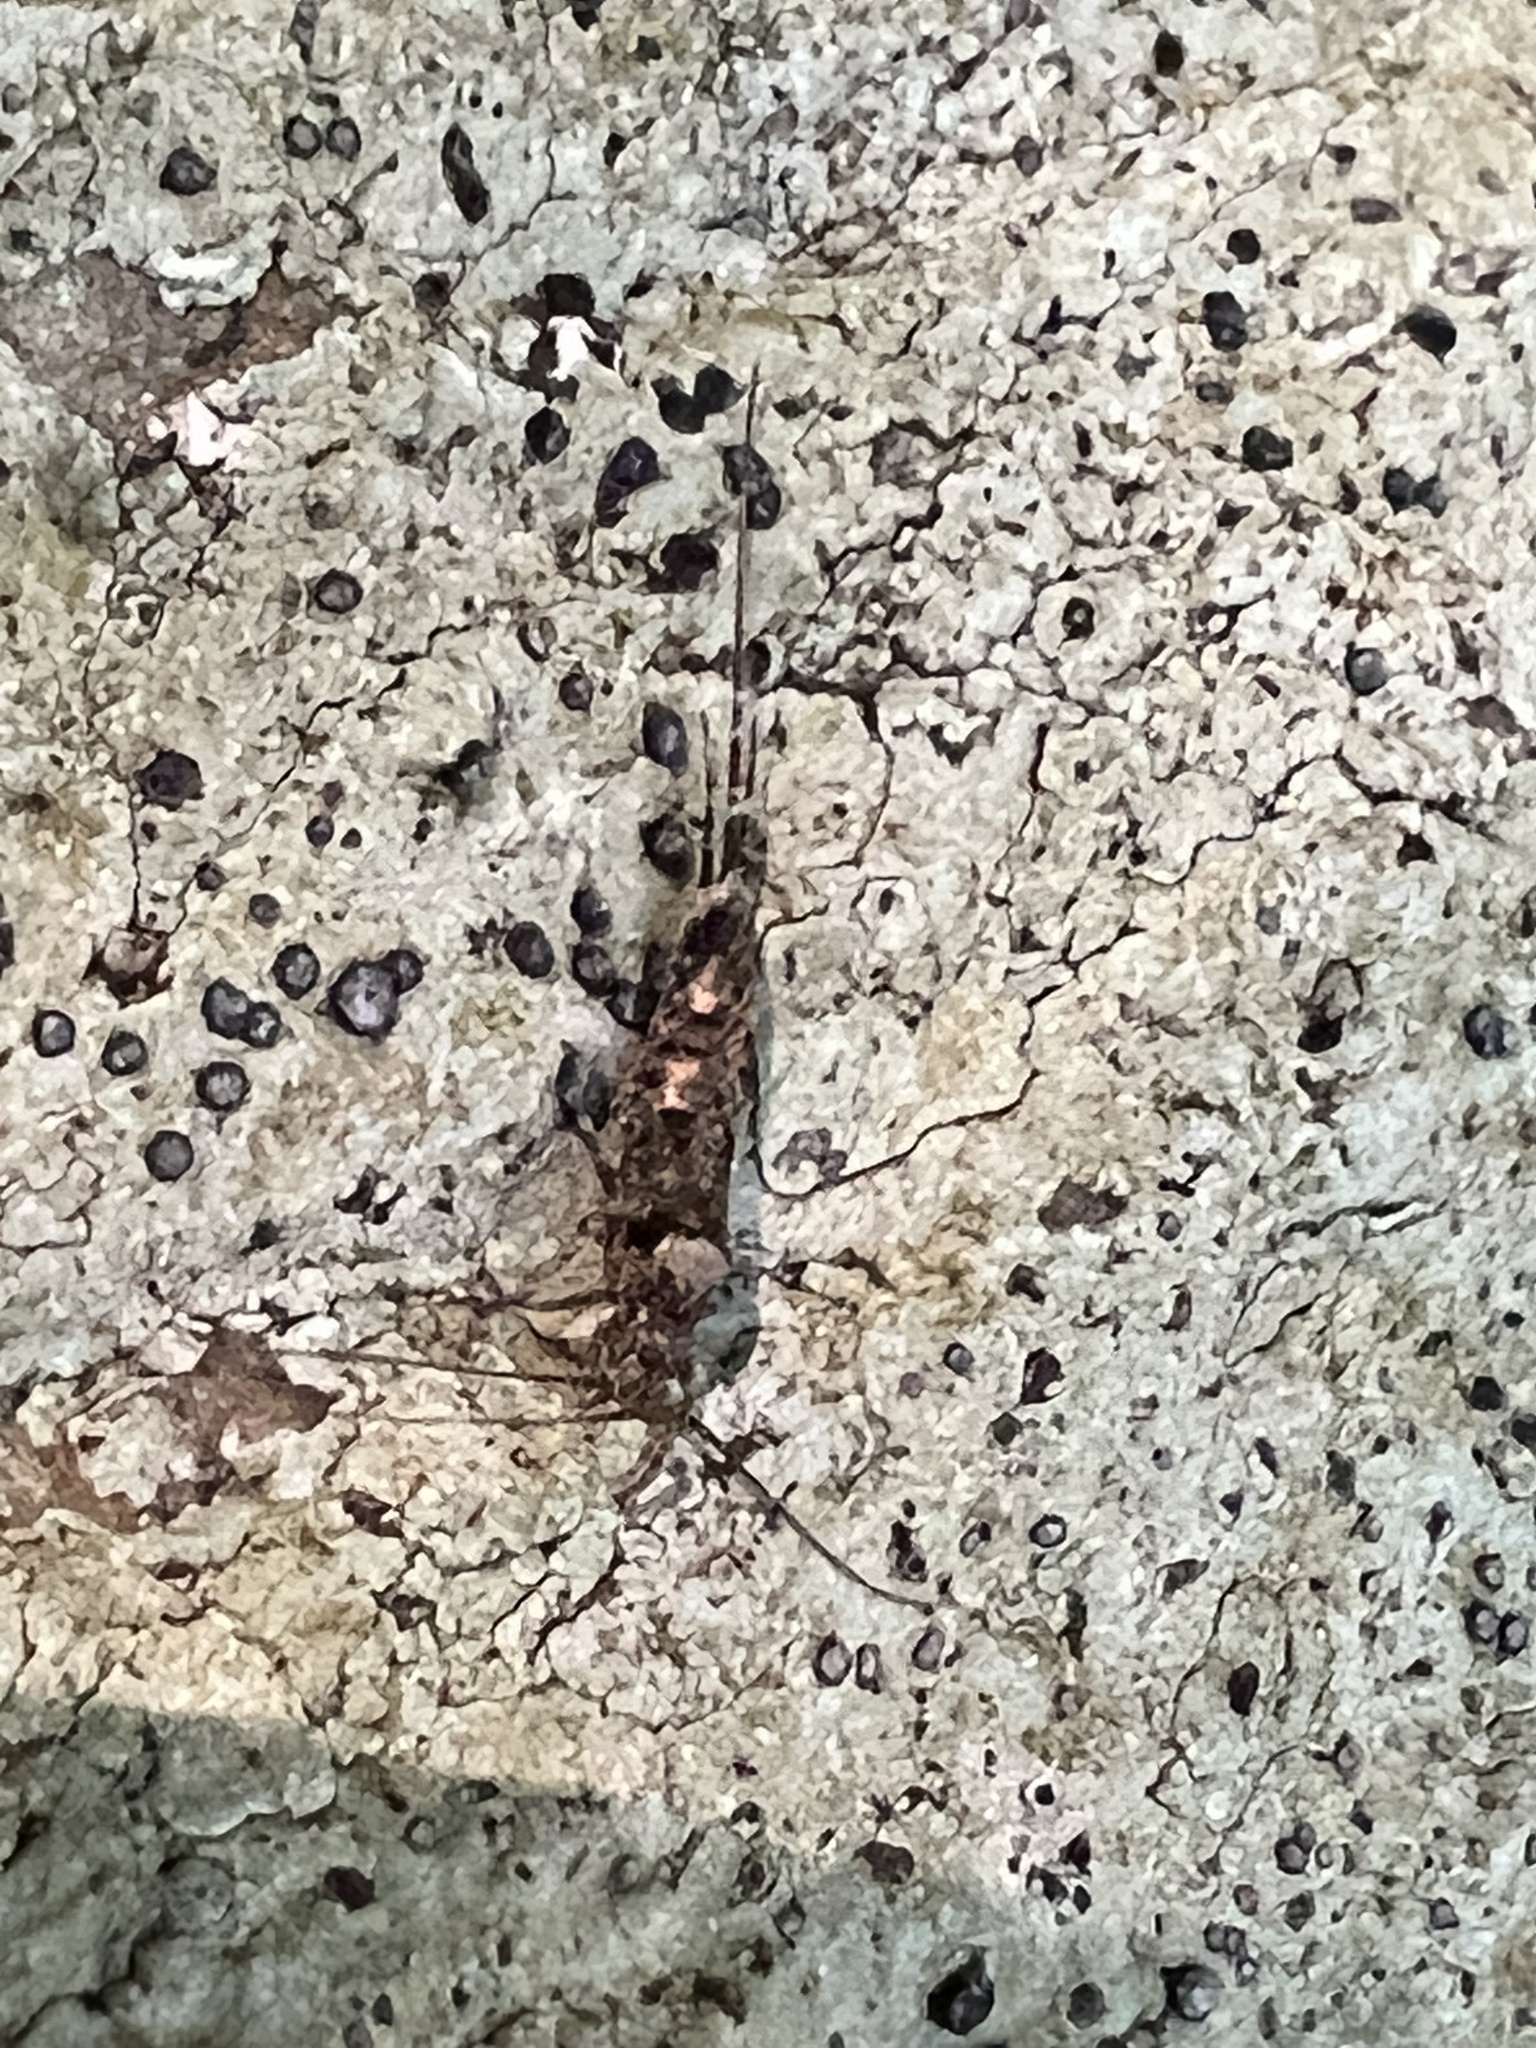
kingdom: Animalia
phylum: Arthropoda
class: Insecta
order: Archaeognatha
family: Machilidae
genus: Trigoniophthalmus
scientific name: Trigoniophthalmus alternatus
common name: Jumping bristletail
